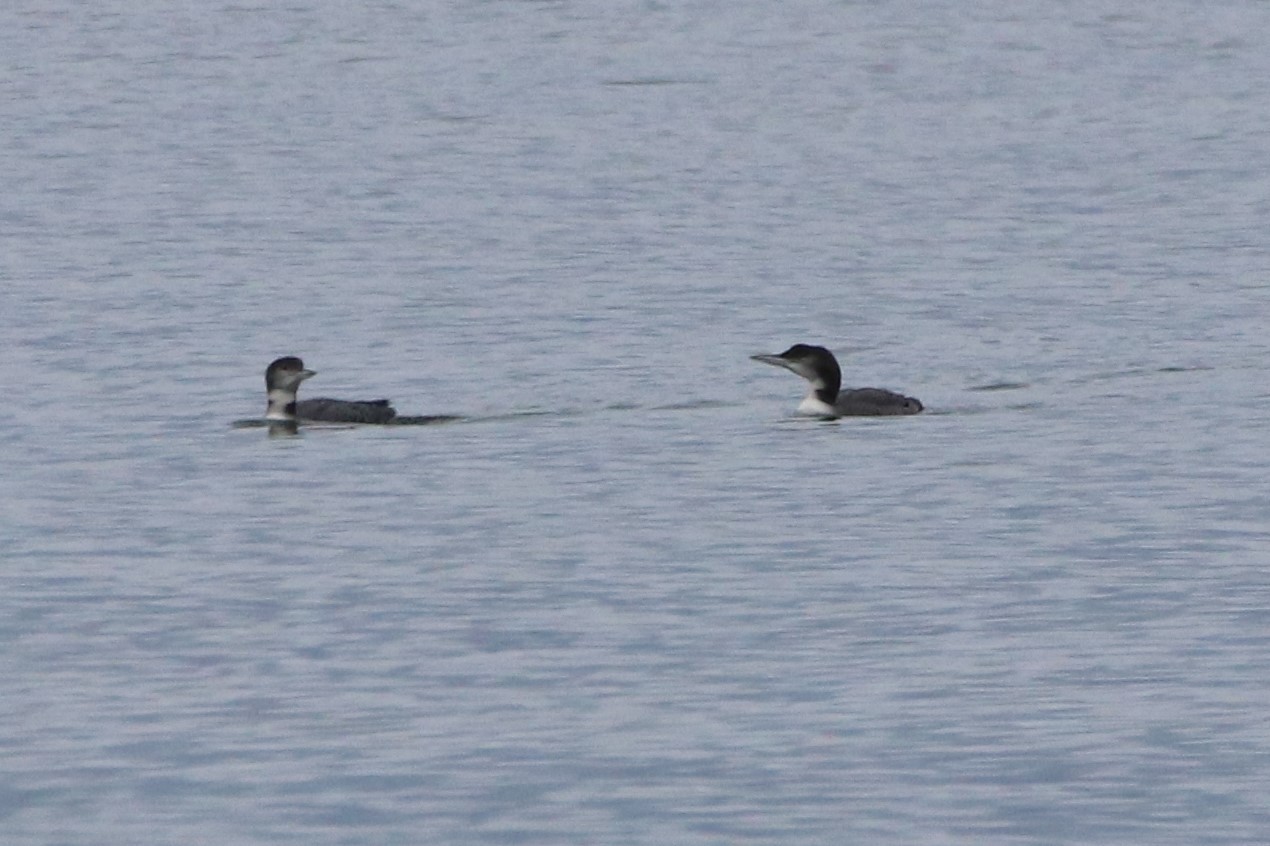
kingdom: Animalia
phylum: Chordata
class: Aves
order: Gaviiformes
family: Gaviidae
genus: Gavia
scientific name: Gavia immer
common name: Common loon
